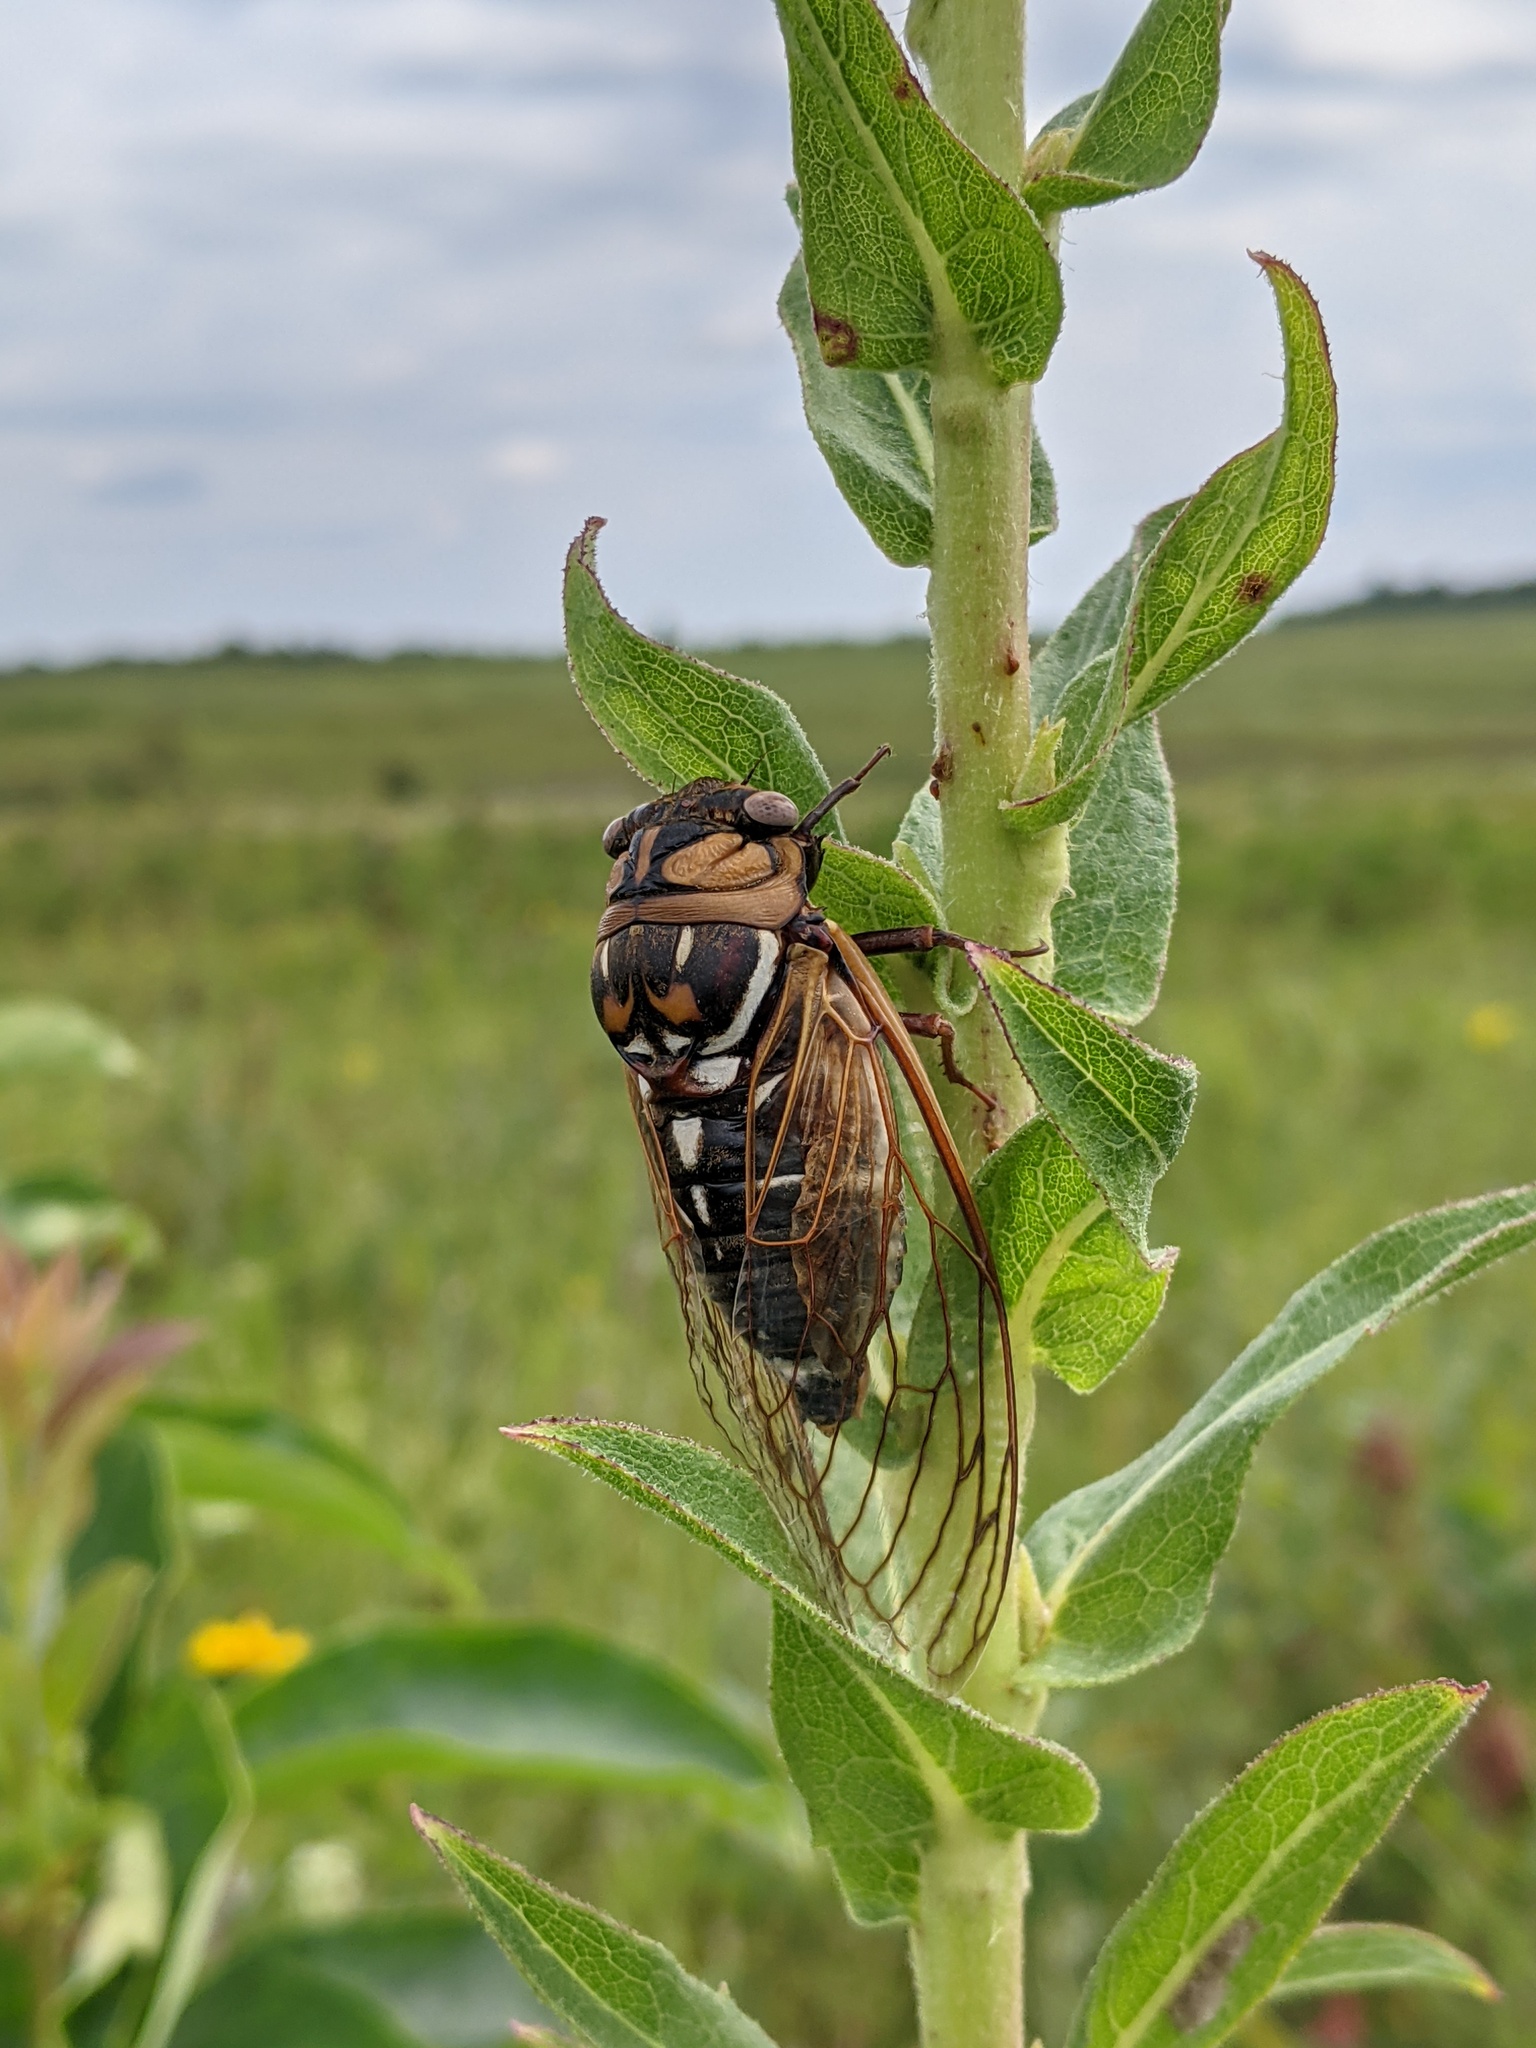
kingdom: Animalia
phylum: Arthropoda
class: Insecta
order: Hemiptera
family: Cicadidae
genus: Megatibicen
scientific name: Megatibicen dorsatus
